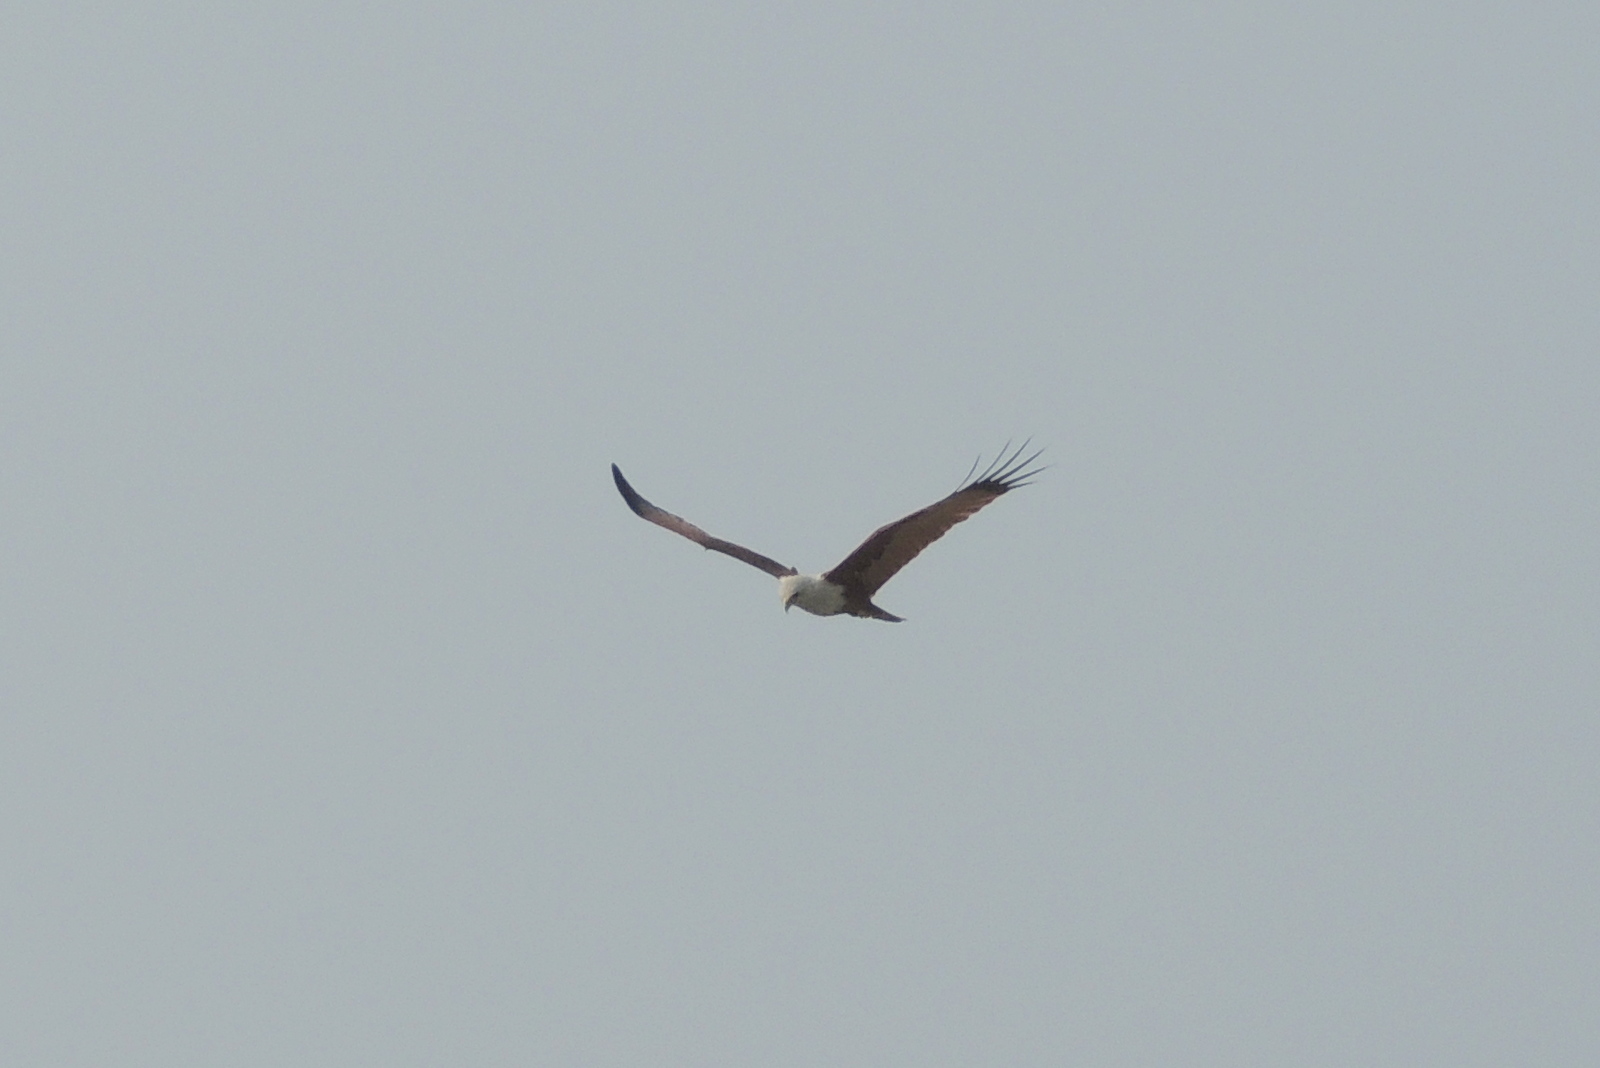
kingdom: Animalia
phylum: Chordata
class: Aves
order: Accipitriformes
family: Accipitridae
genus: Haliastur
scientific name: Haliastur indus
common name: Brahminy kite
